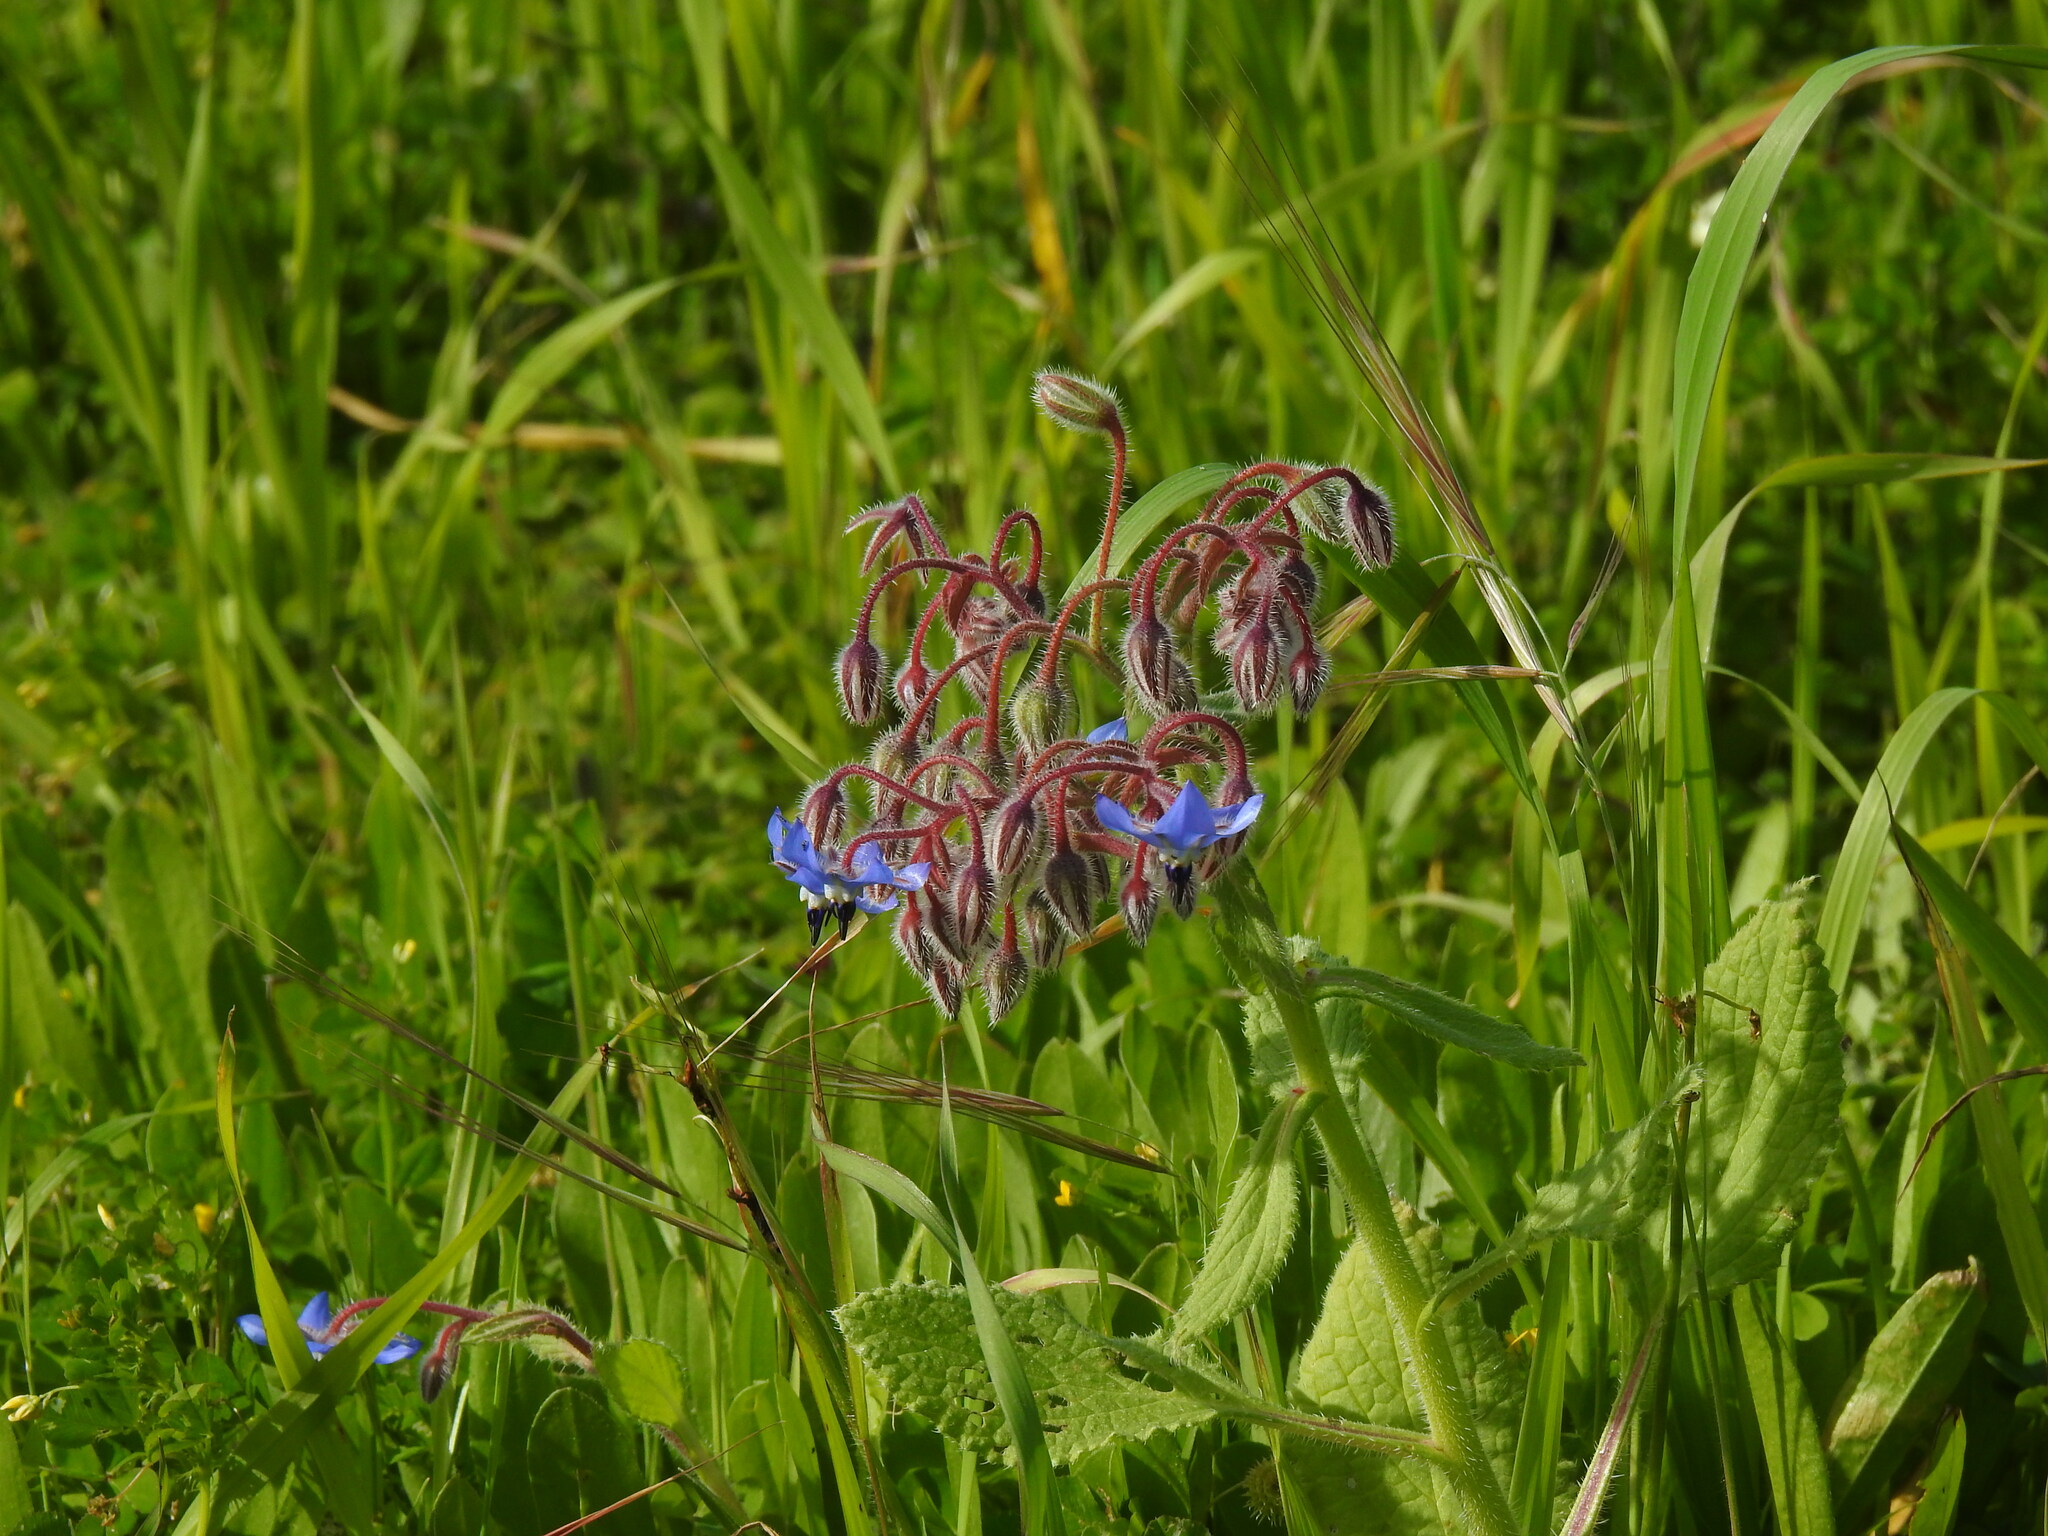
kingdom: Plantae
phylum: Tracheophyta
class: Magnoliopsida
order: Boraginales
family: Boraginaceae
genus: Borago
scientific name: Borago officinalis
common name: Borage
